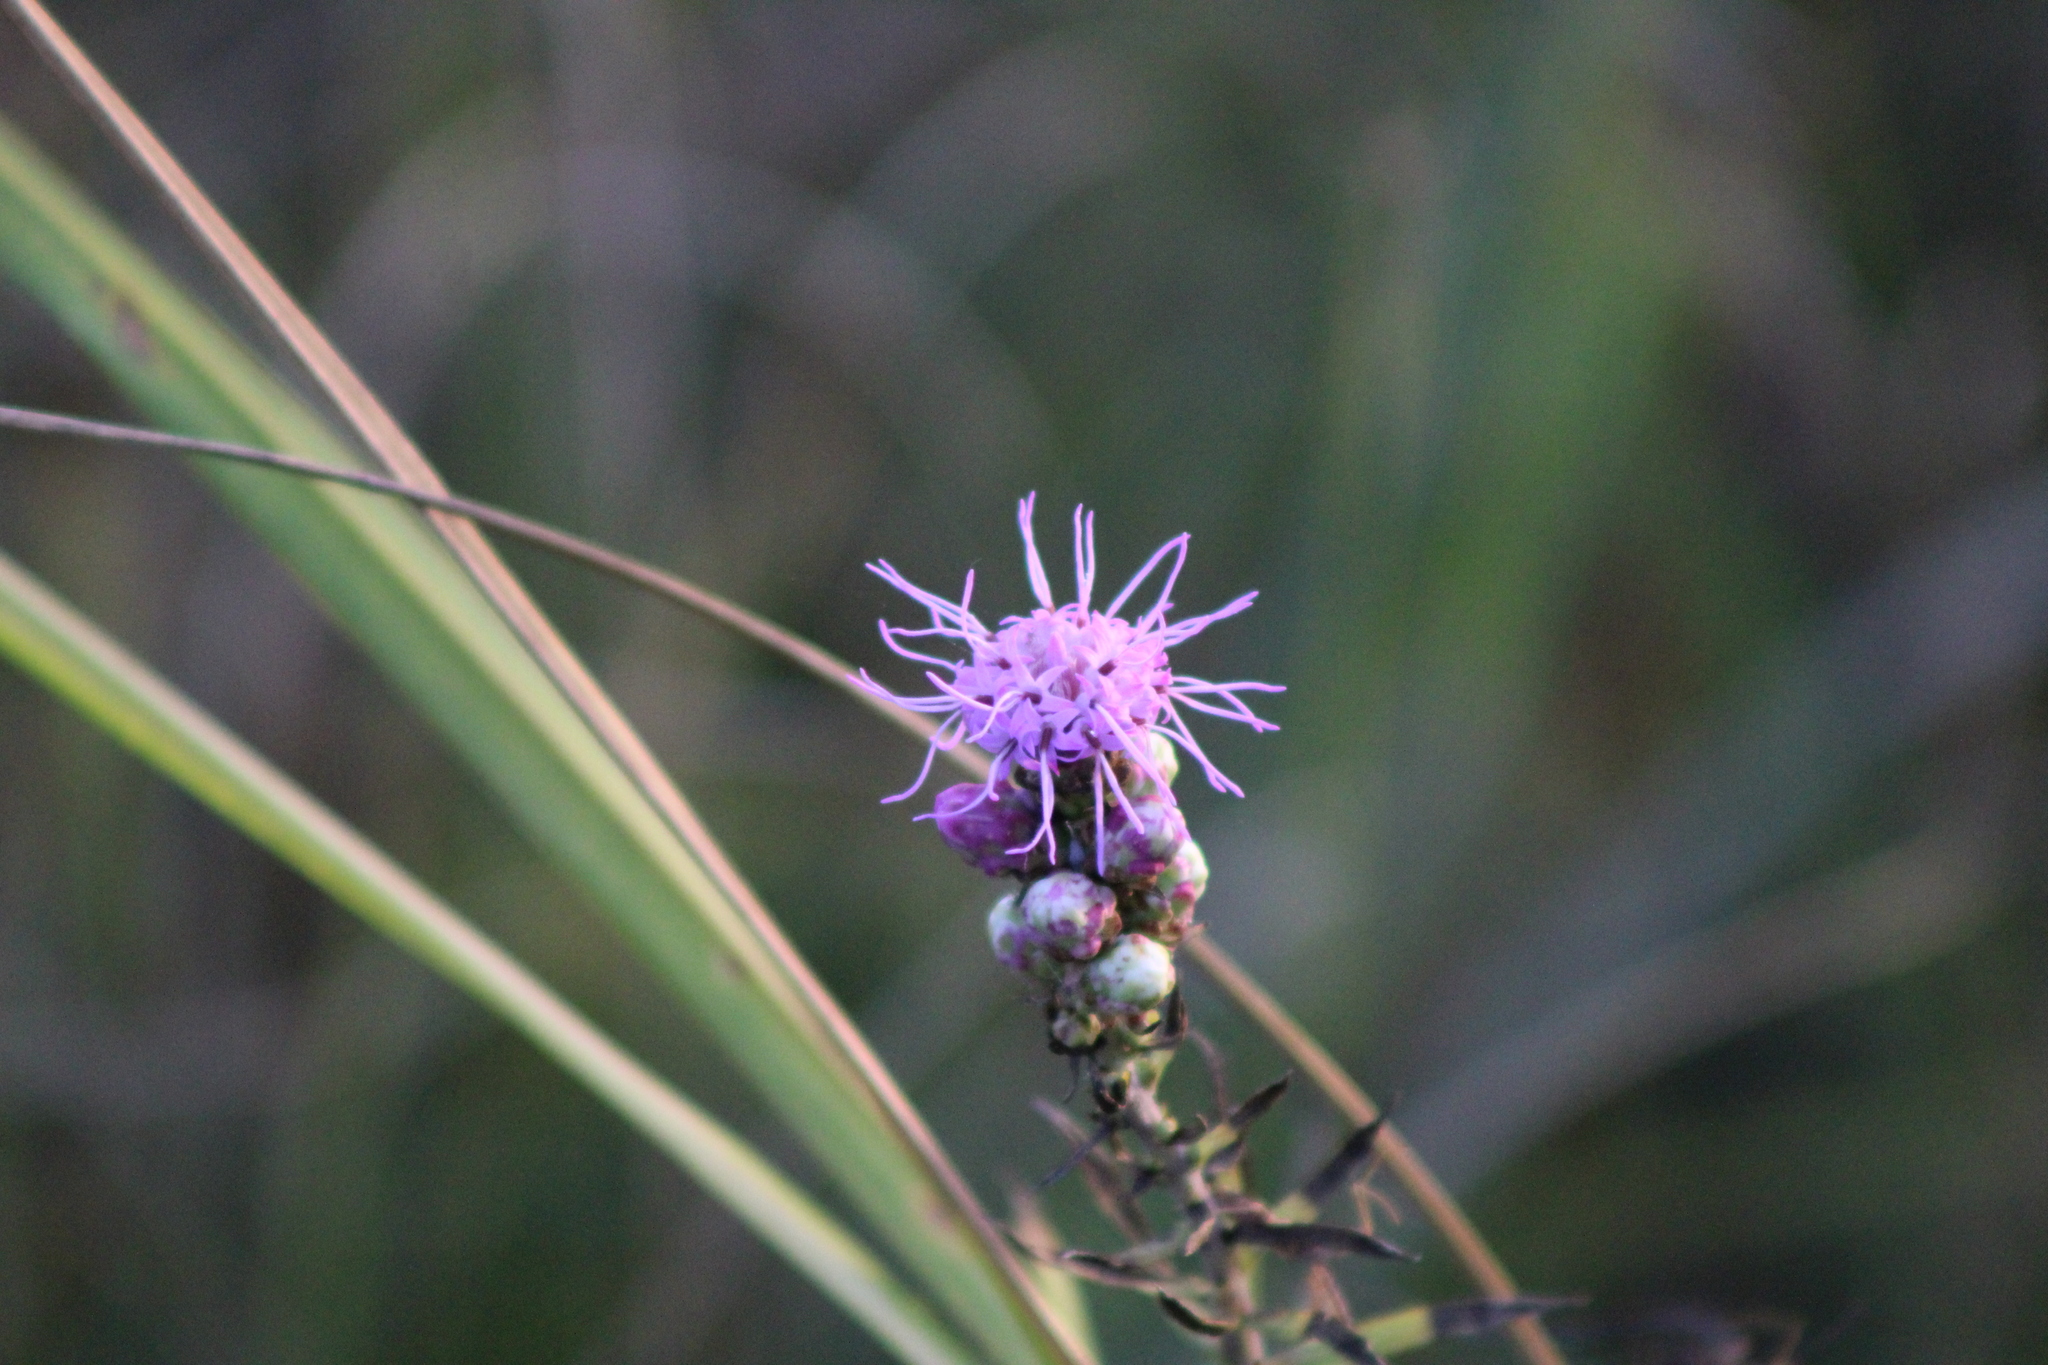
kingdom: Plantae
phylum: Tracheophyta
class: Magnoliopsida
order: Asterales
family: Asteraceae
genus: Liatris
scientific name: Liatris aspera
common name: Lacerate blazing-star
